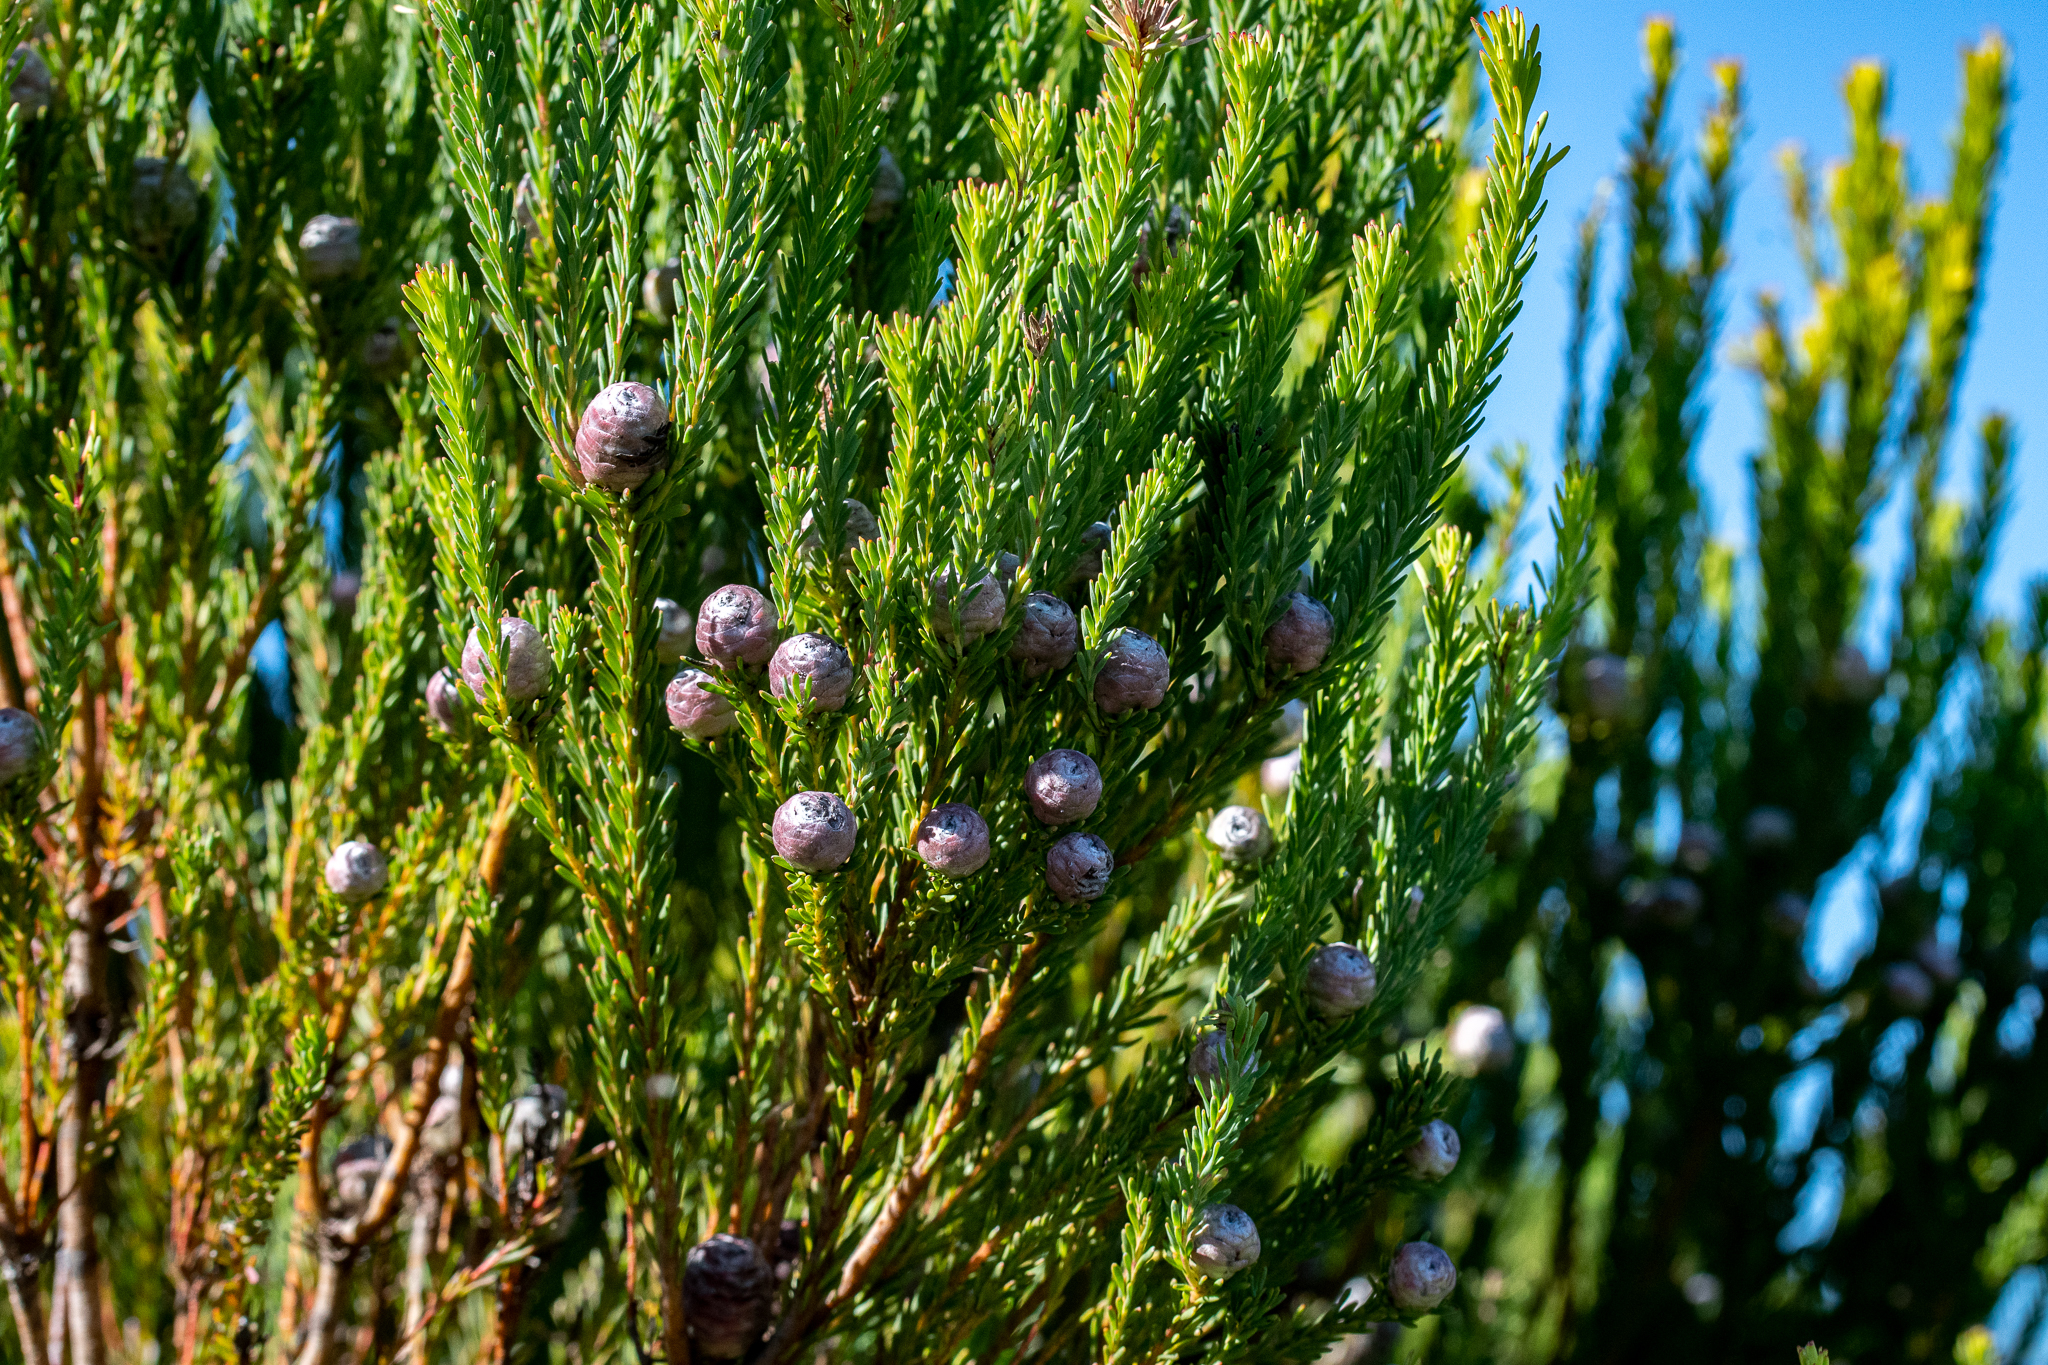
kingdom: Plantae
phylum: Tracheophyta
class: Magnoliopsida
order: Proteales
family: Proteaceae
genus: Leucadendron
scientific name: Leucadendron linifolium
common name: Line-leaf conebush
